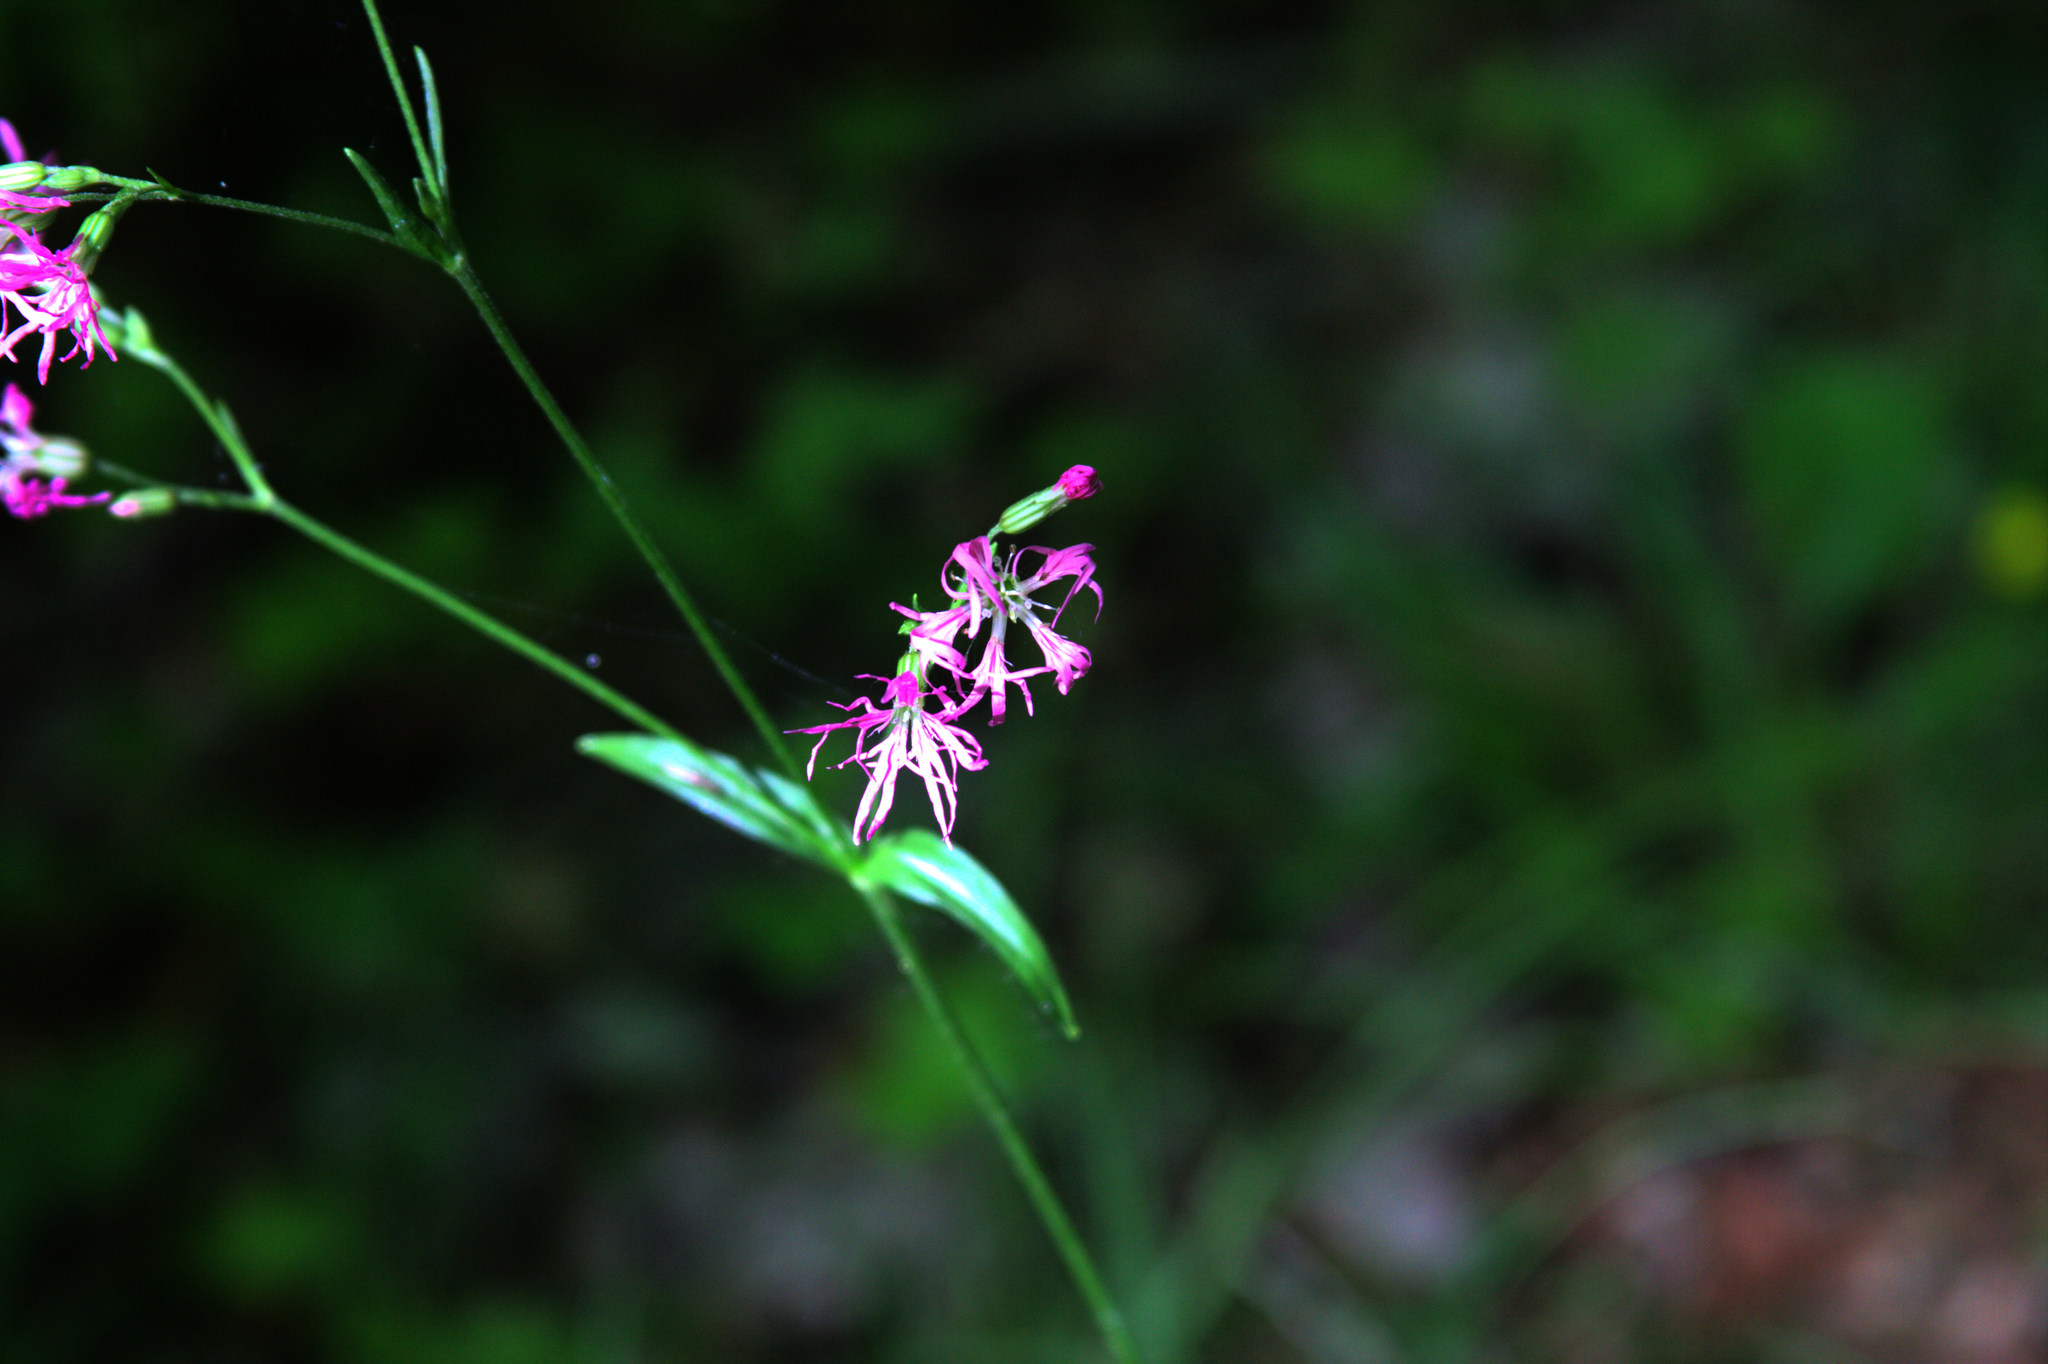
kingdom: Plantae
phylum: Tracheophyta
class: Magnoliopsida
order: Caryophyllales
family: Caryophyllaceae
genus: Silene
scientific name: Silene flos-cuculi
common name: Ragged-robin
